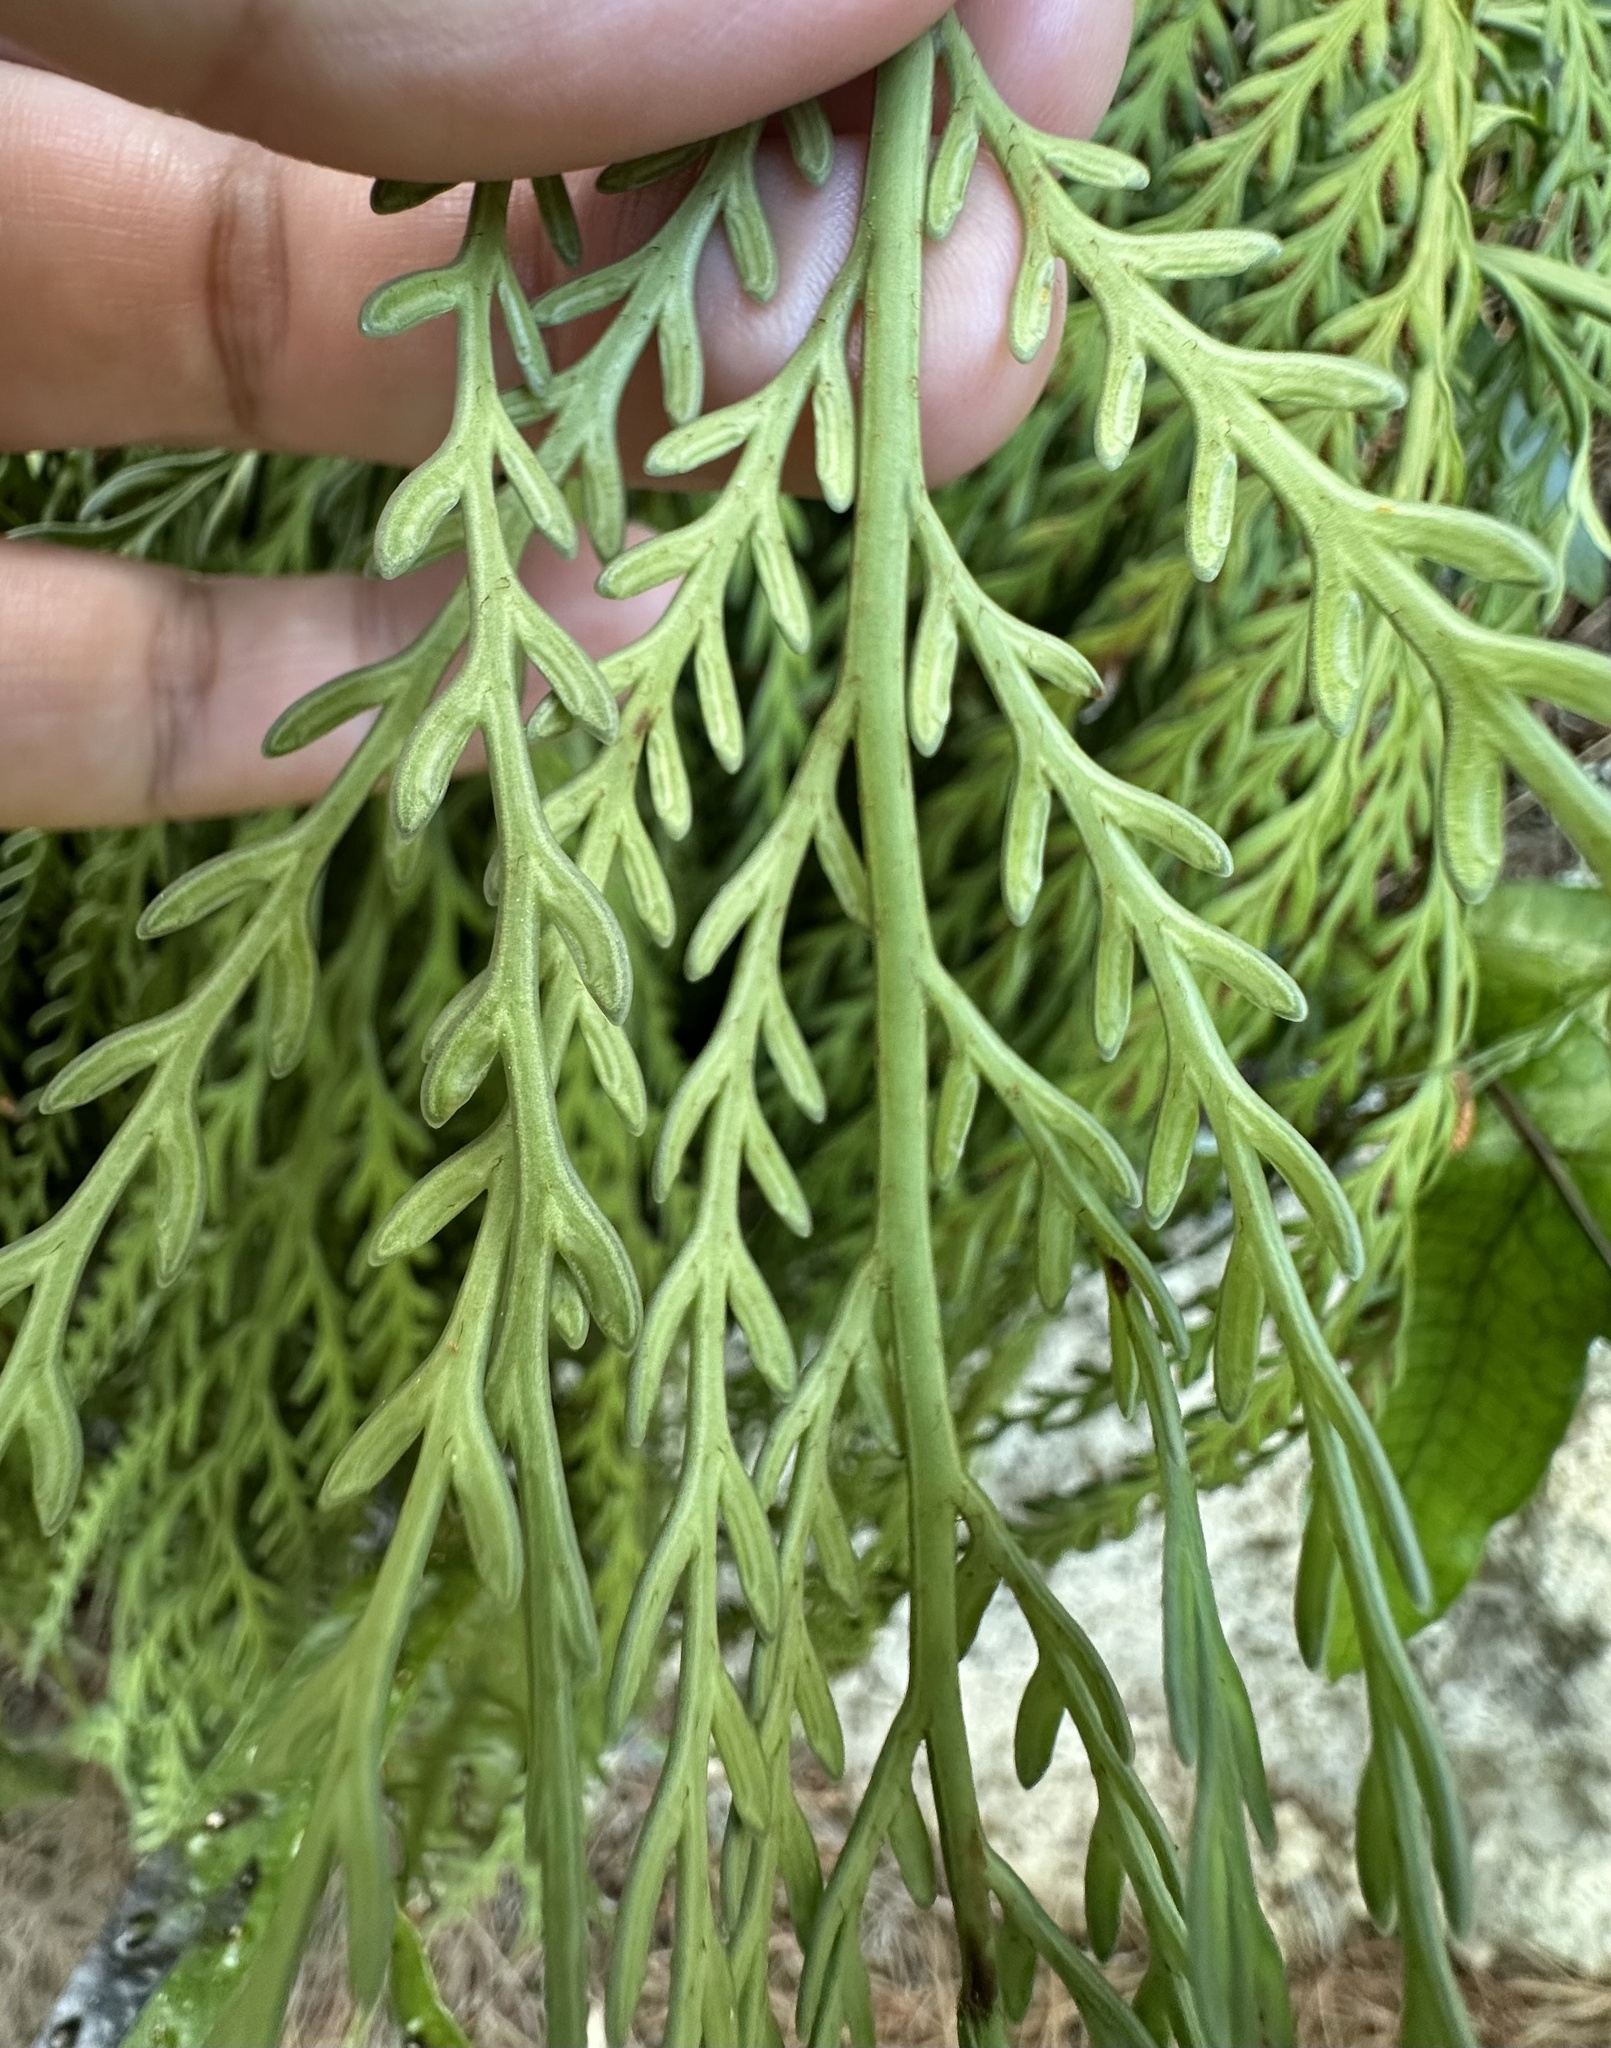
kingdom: Plantae
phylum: Tracheophyta
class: Polypodiopsida
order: Polypodiales
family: Aspleniaceae
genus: Asplenium
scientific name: Asplenium flaccidum
